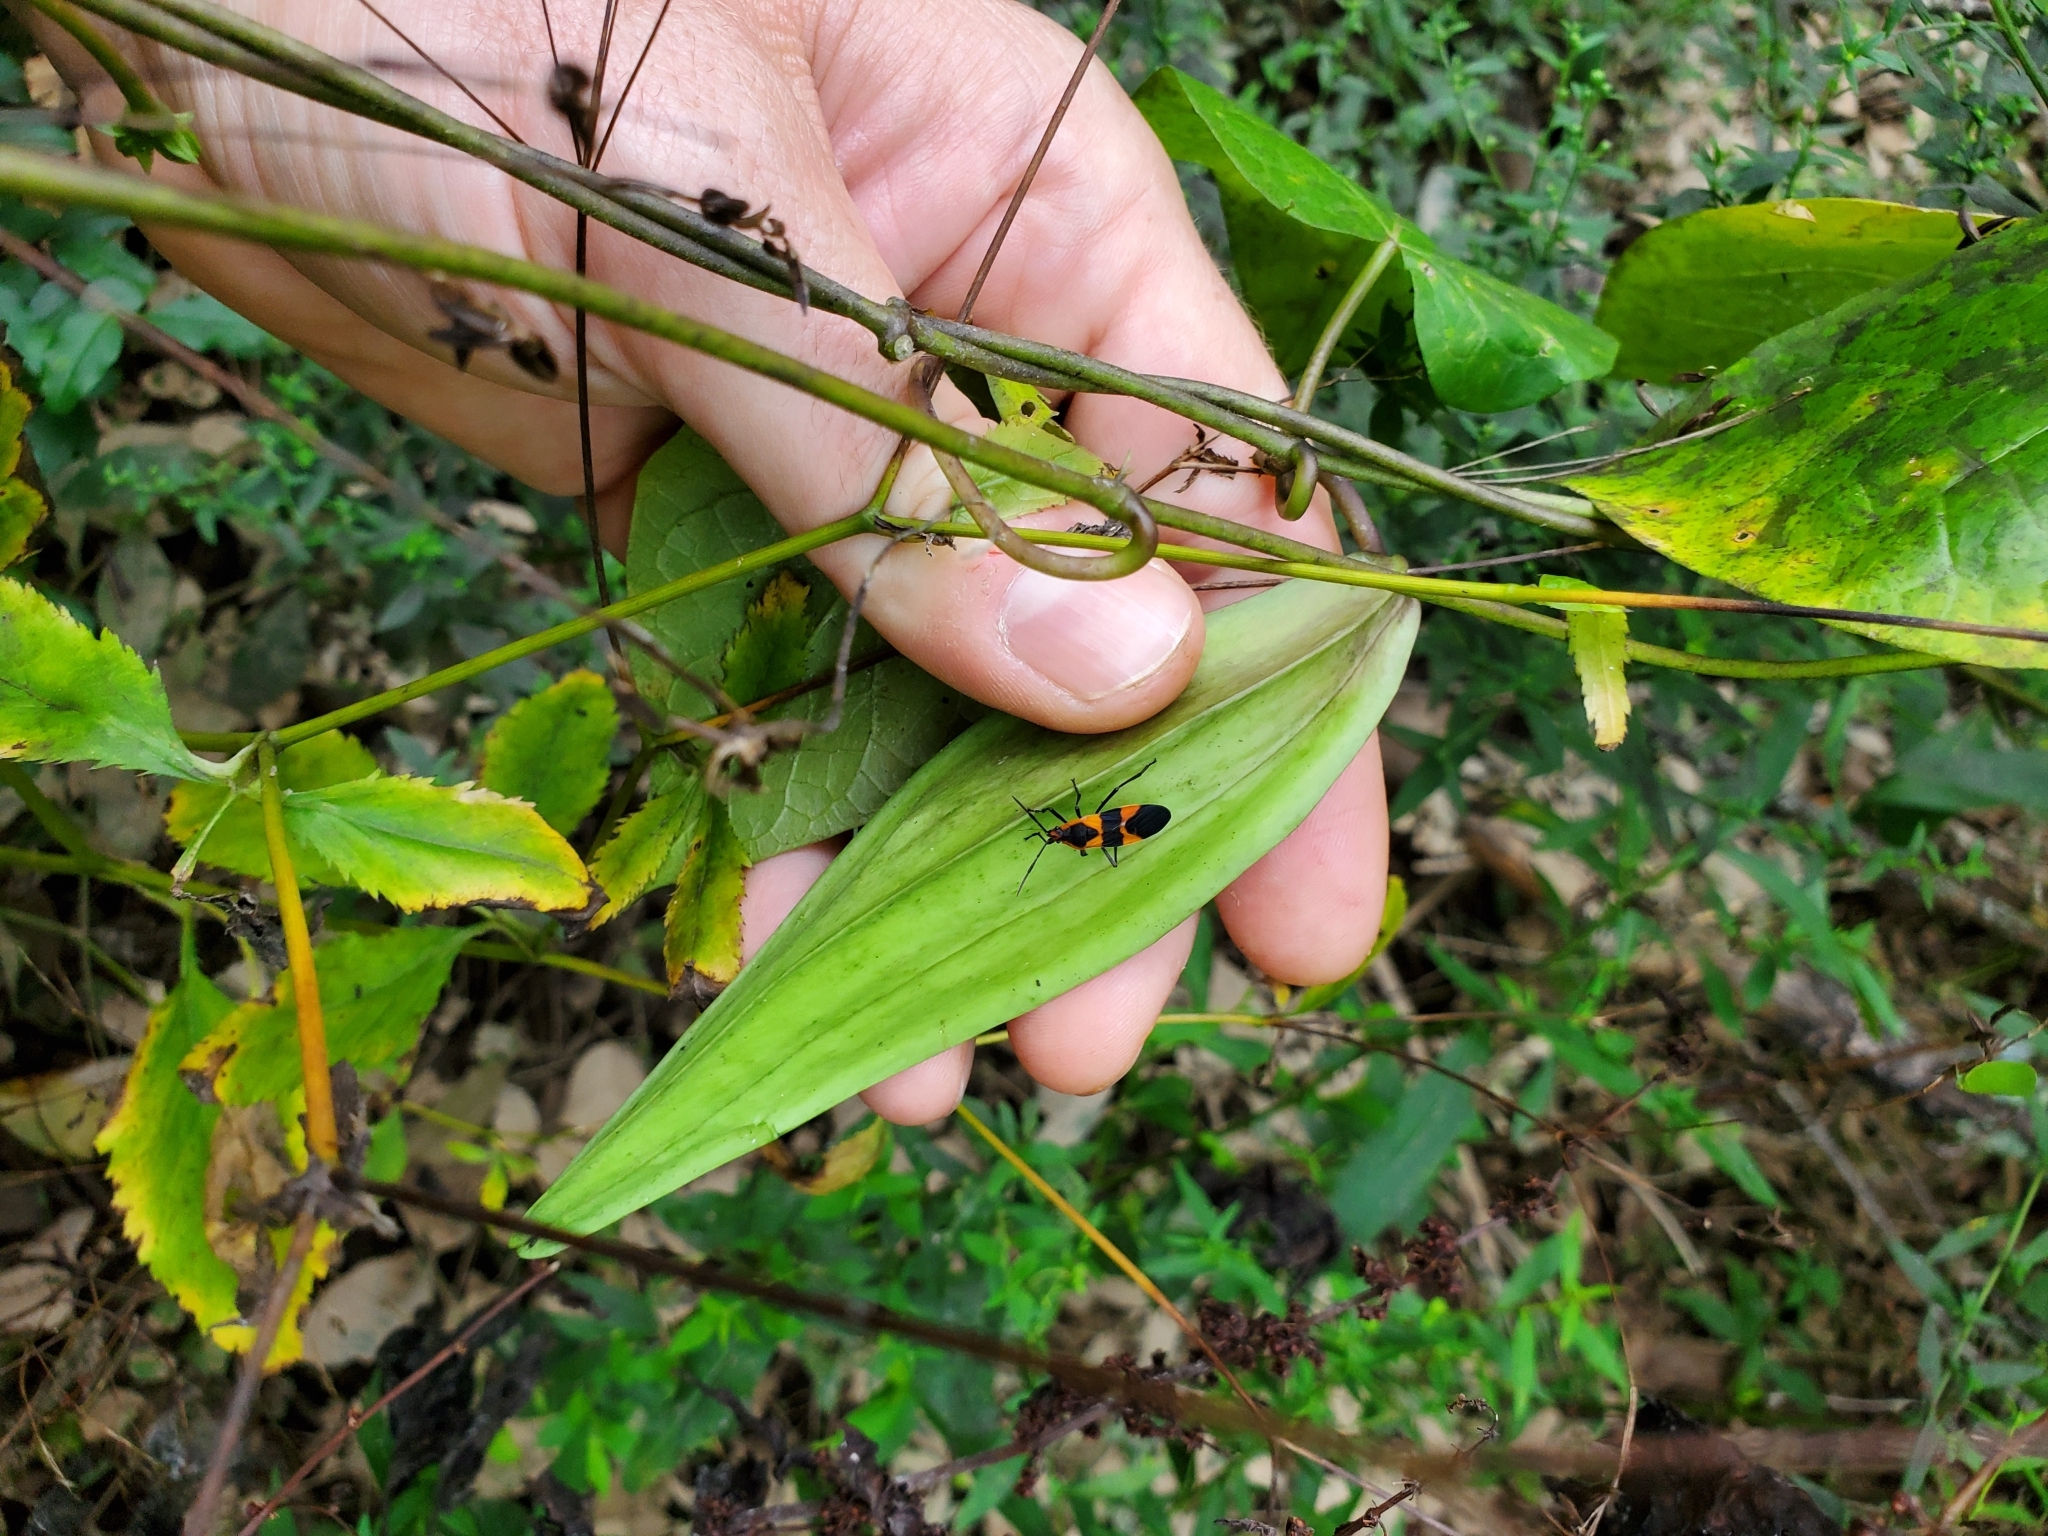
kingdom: Animalia
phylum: Arthropoda
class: Insecta
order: Hemiptera
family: Lygaeidae
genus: Oncopeltus
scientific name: Oncopeltus fasciatus
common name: Large milkweed bug
